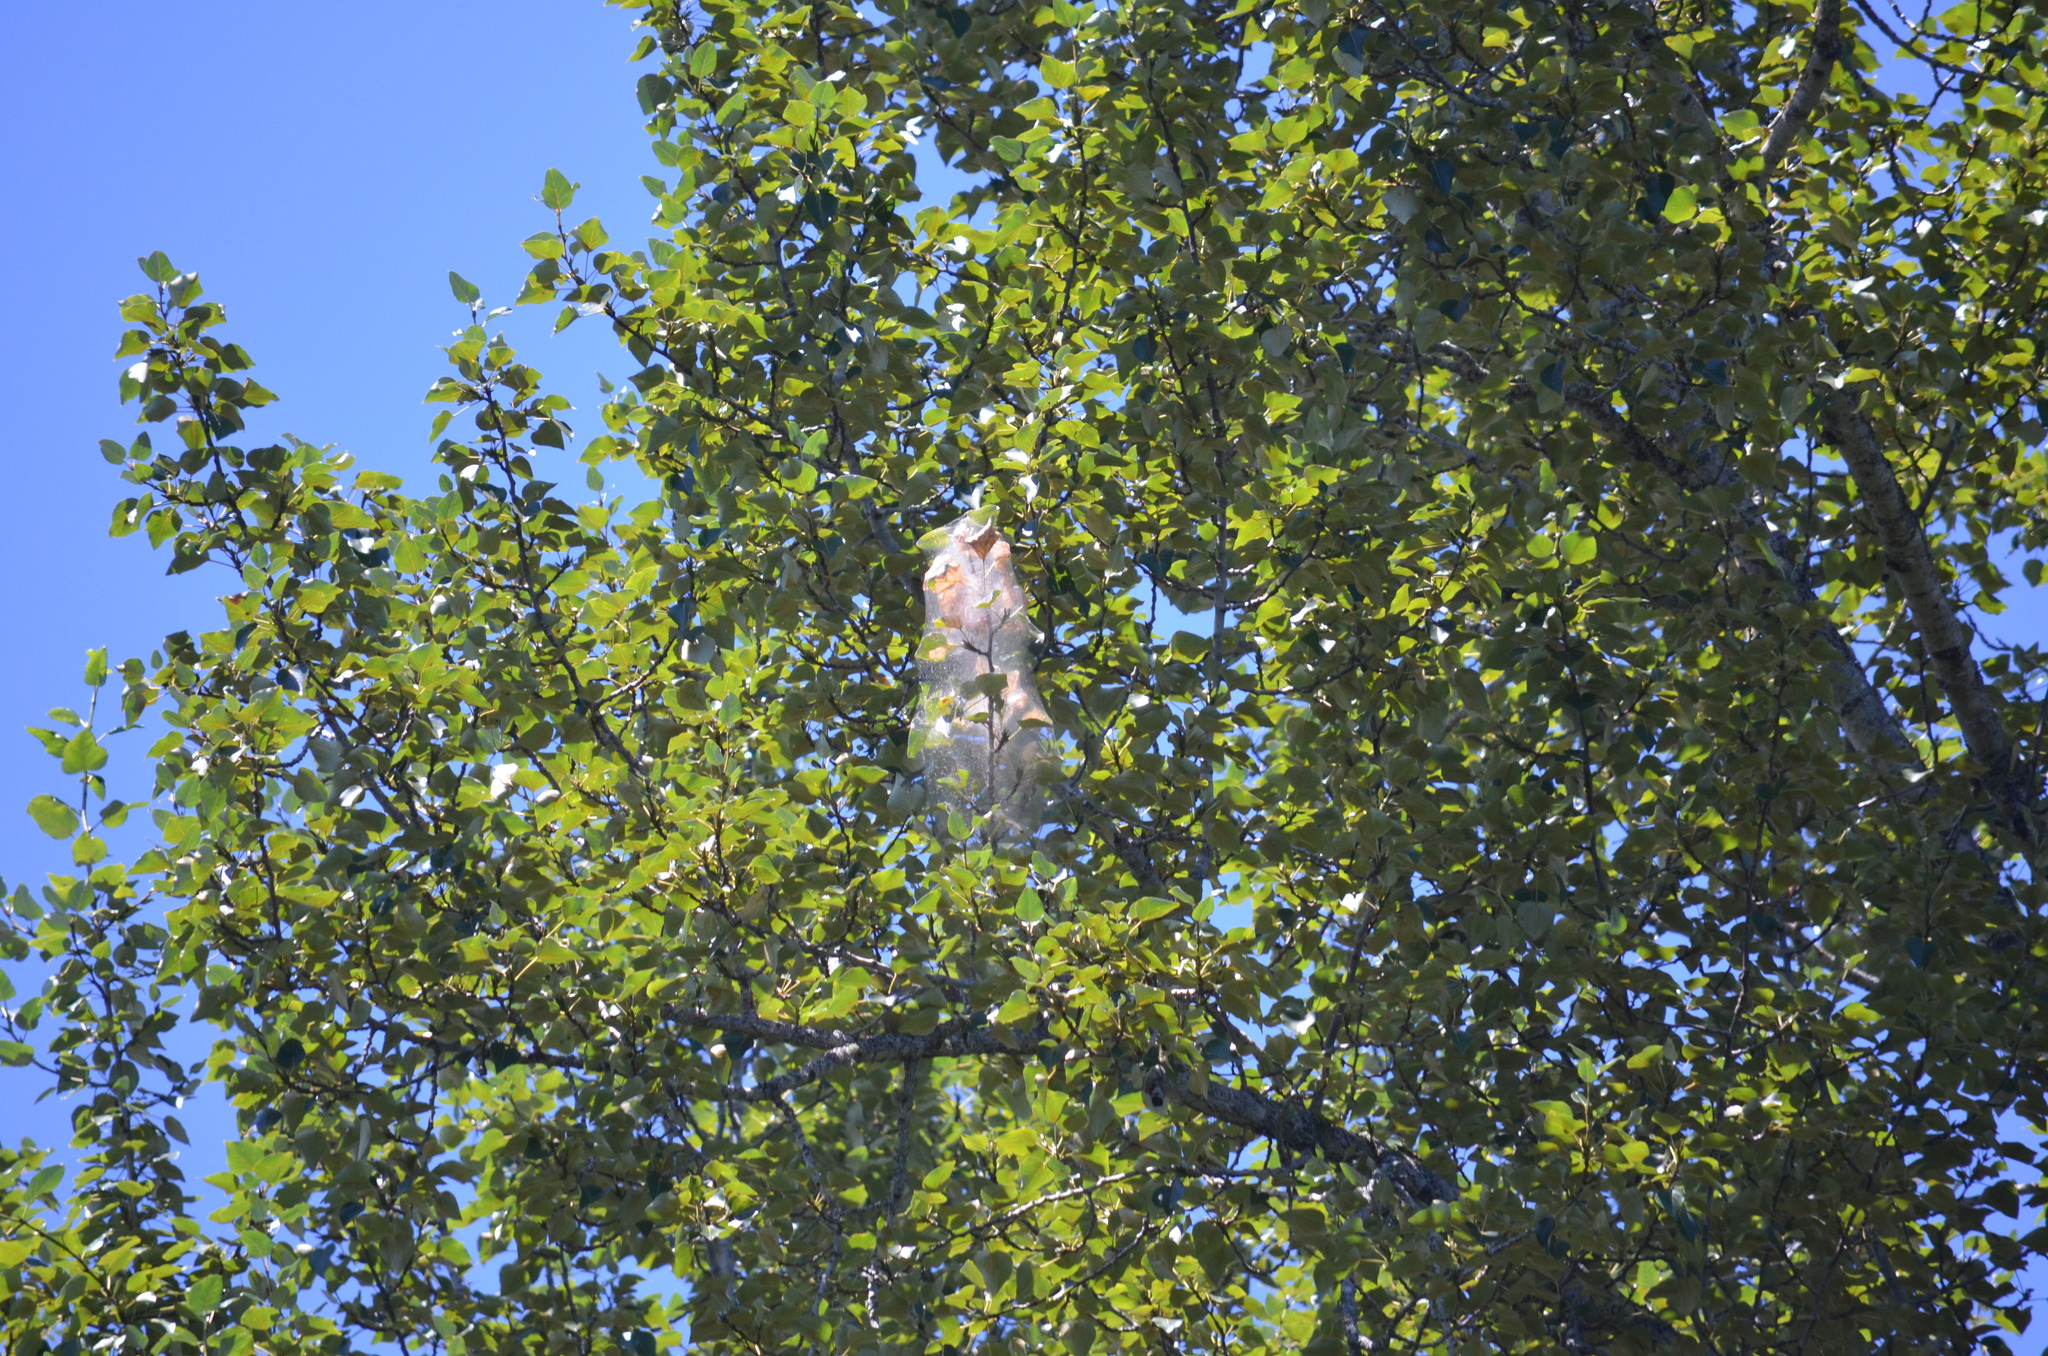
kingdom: Animalia
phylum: Arthropoda
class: Insecta
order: Lepidoptera
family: Erebidae
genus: Hyphantria
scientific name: Hyphantria cunea
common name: American white moth
